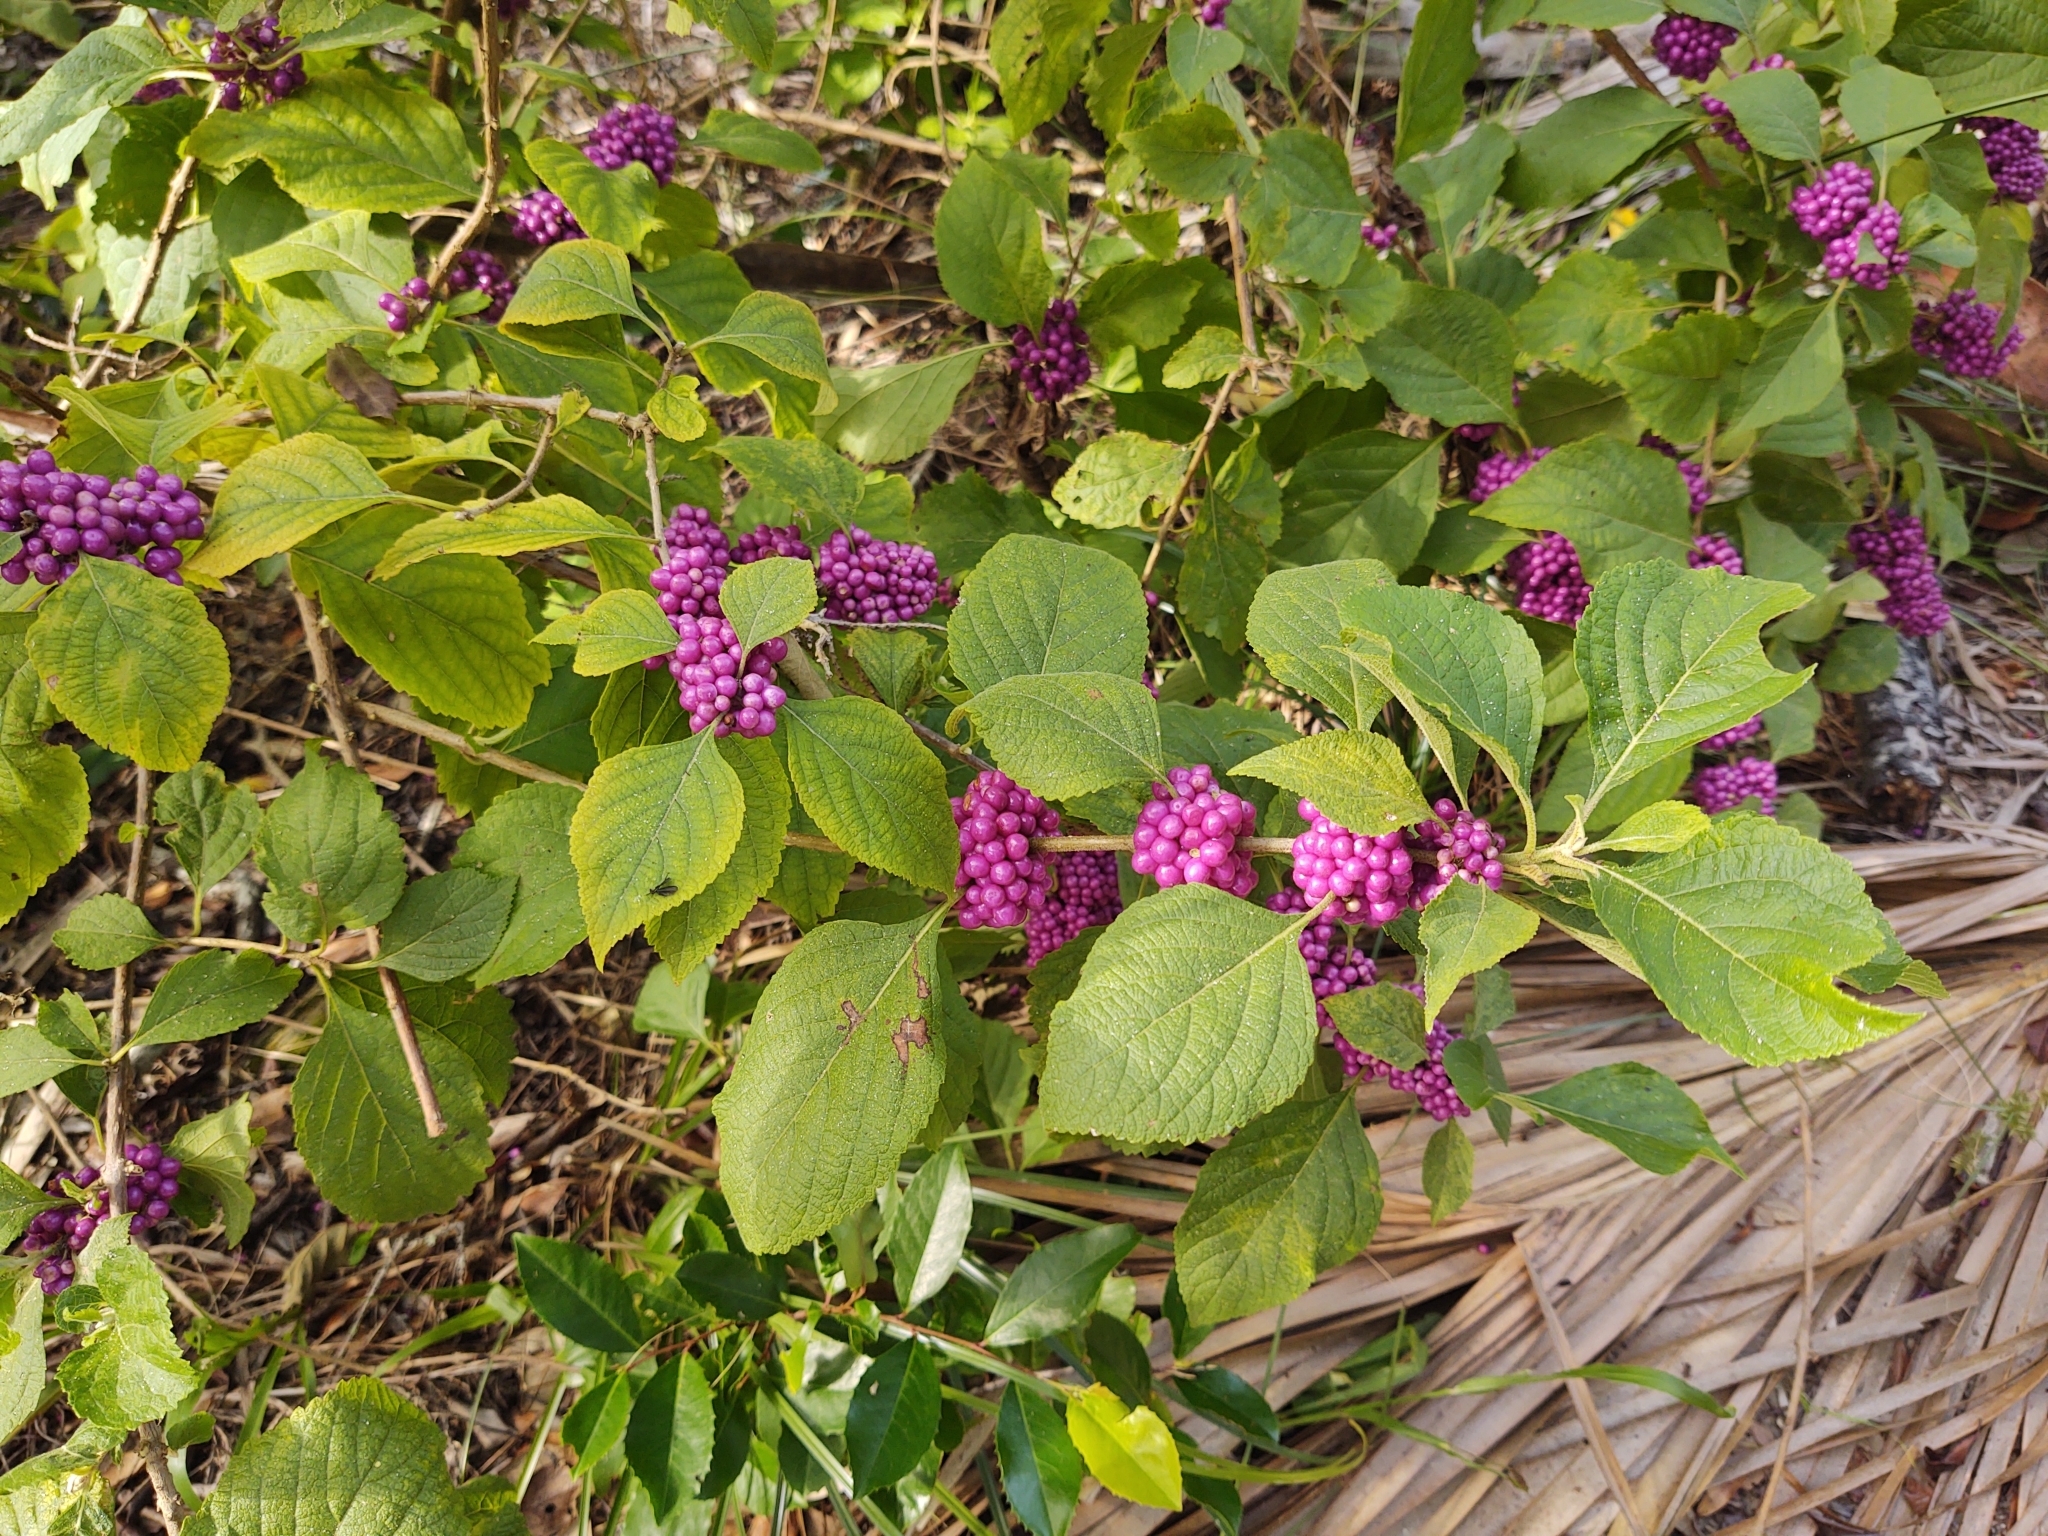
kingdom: Plantae
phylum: Tracheophyta
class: Magnoliopsida
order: Lamiales
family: Lamiaceae
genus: Callicarpa
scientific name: Callicarpa americana
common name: American beautyberry
